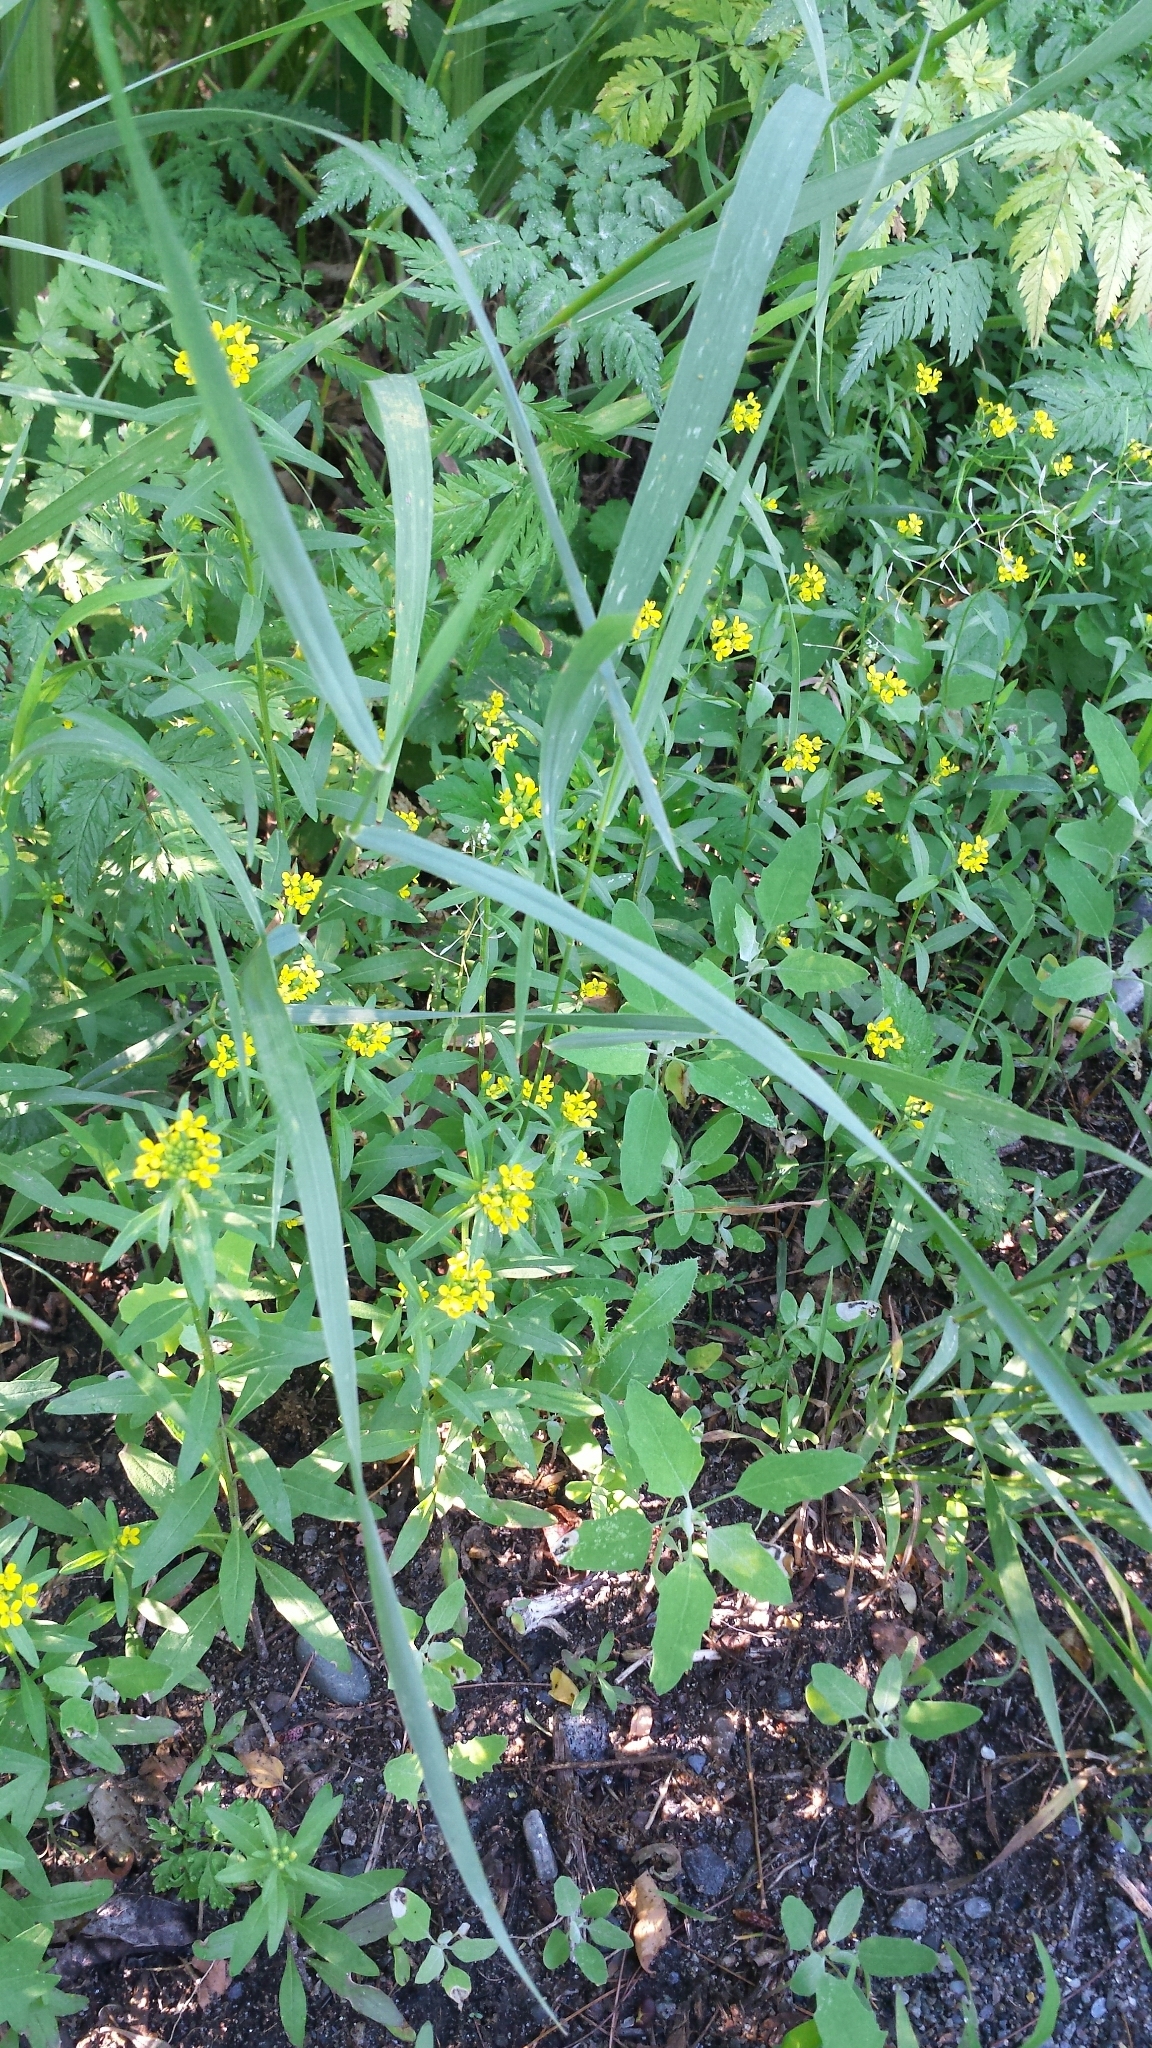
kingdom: Plantae
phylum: Tracheophyta
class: Magnoliopsida
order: Brassicales
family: Brassicaceae
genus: Erysimum
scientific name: Erysimum cheiranthoides
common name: Treacle mustard
